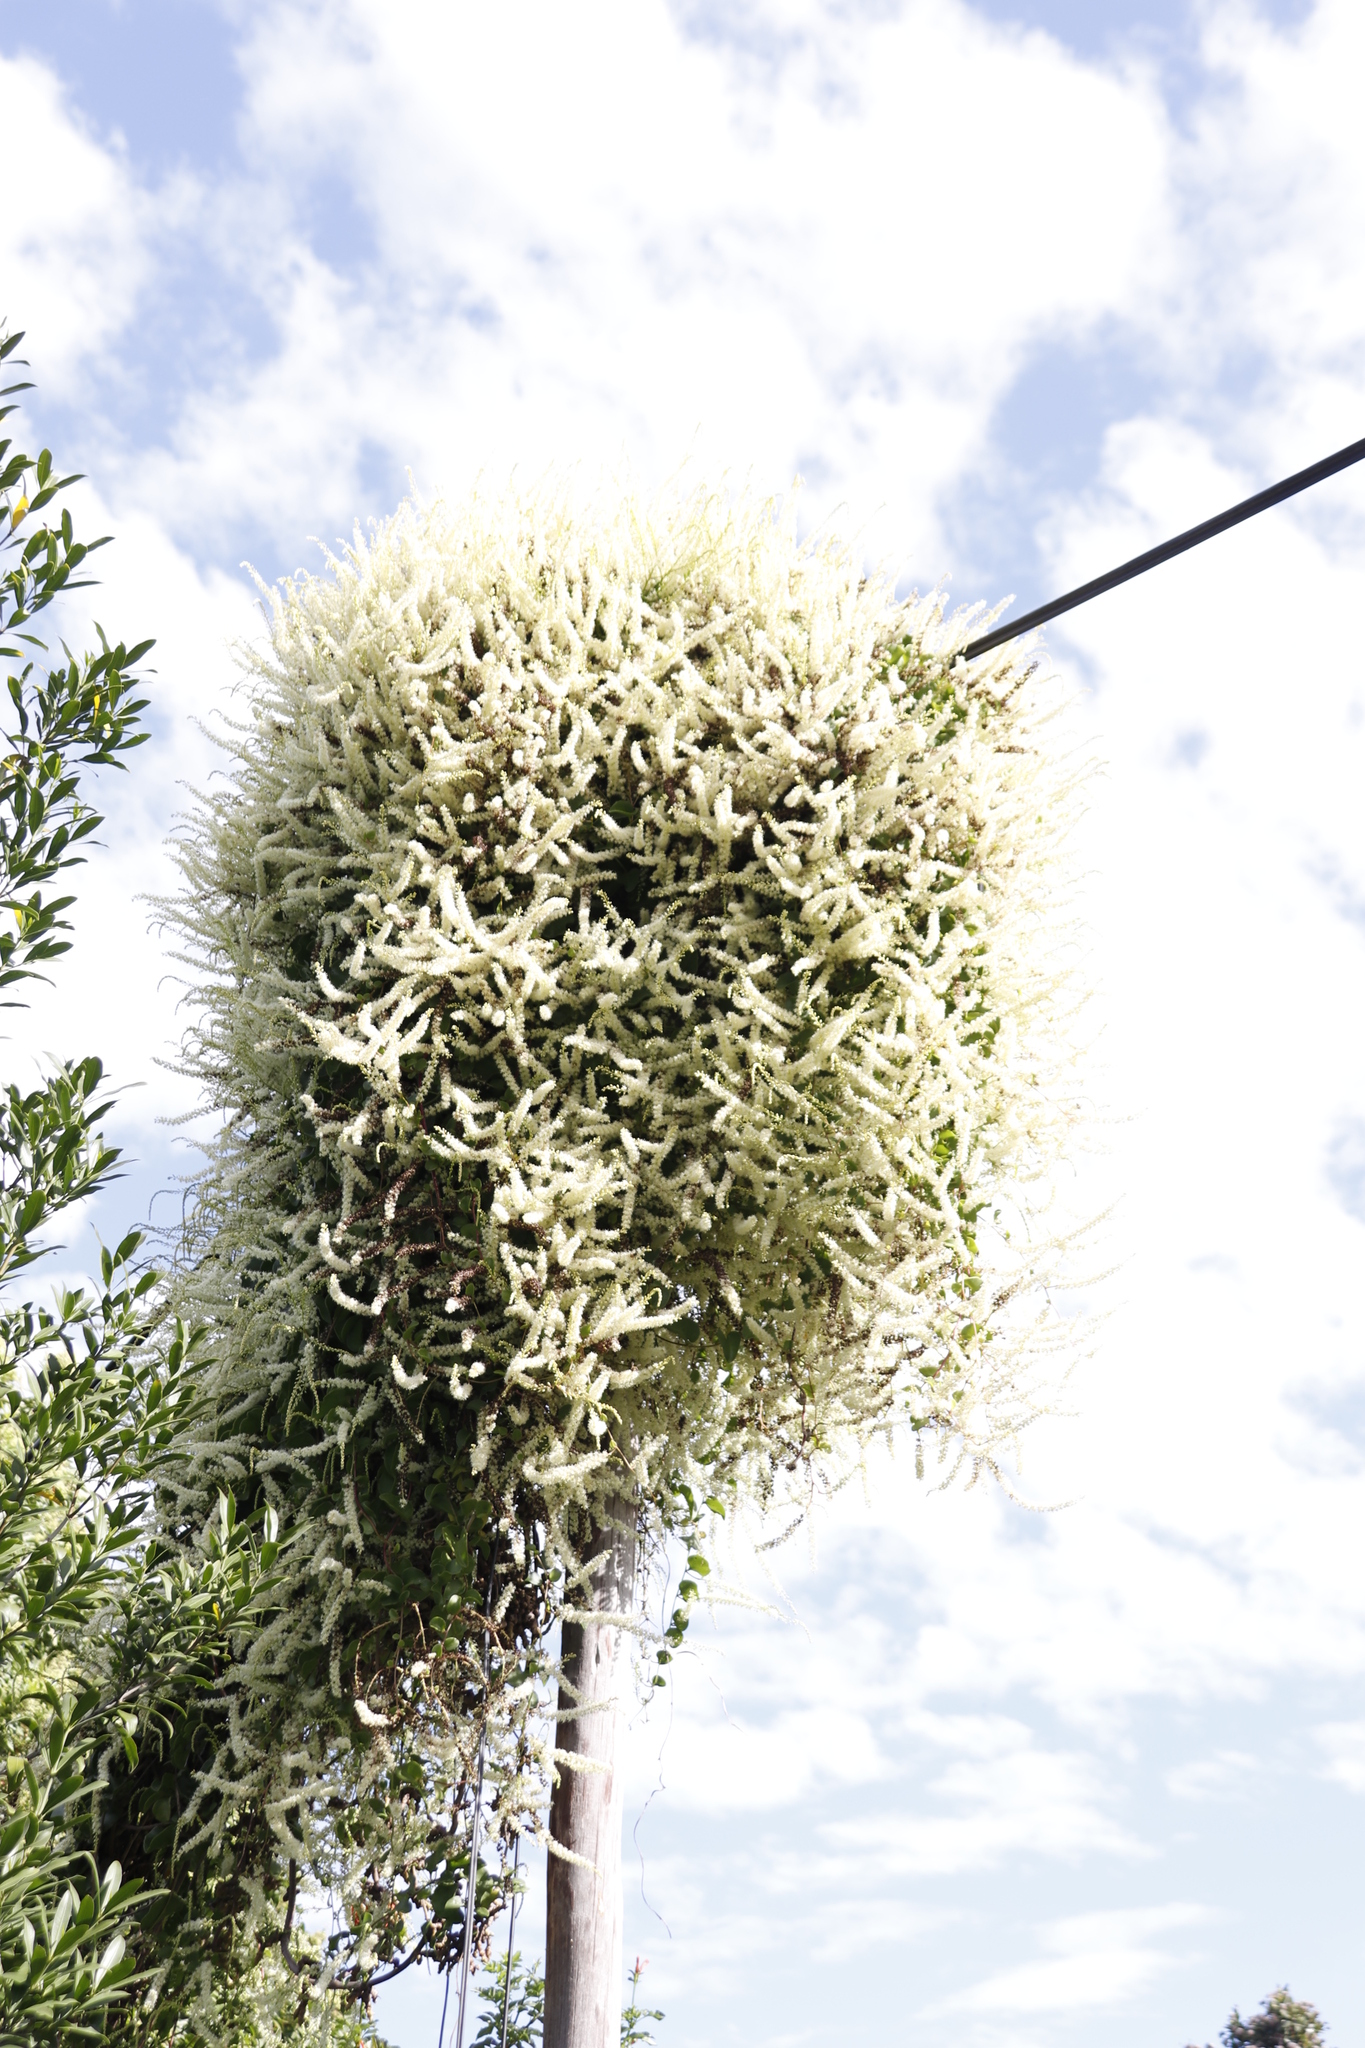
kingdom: Plantae
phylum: Tracheophyta
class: Magnoliopsida
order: Caryophyllales
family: Basellaceae
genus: Anredera
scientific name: Anredera cordifolia
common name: Heartleaf madeiravine
